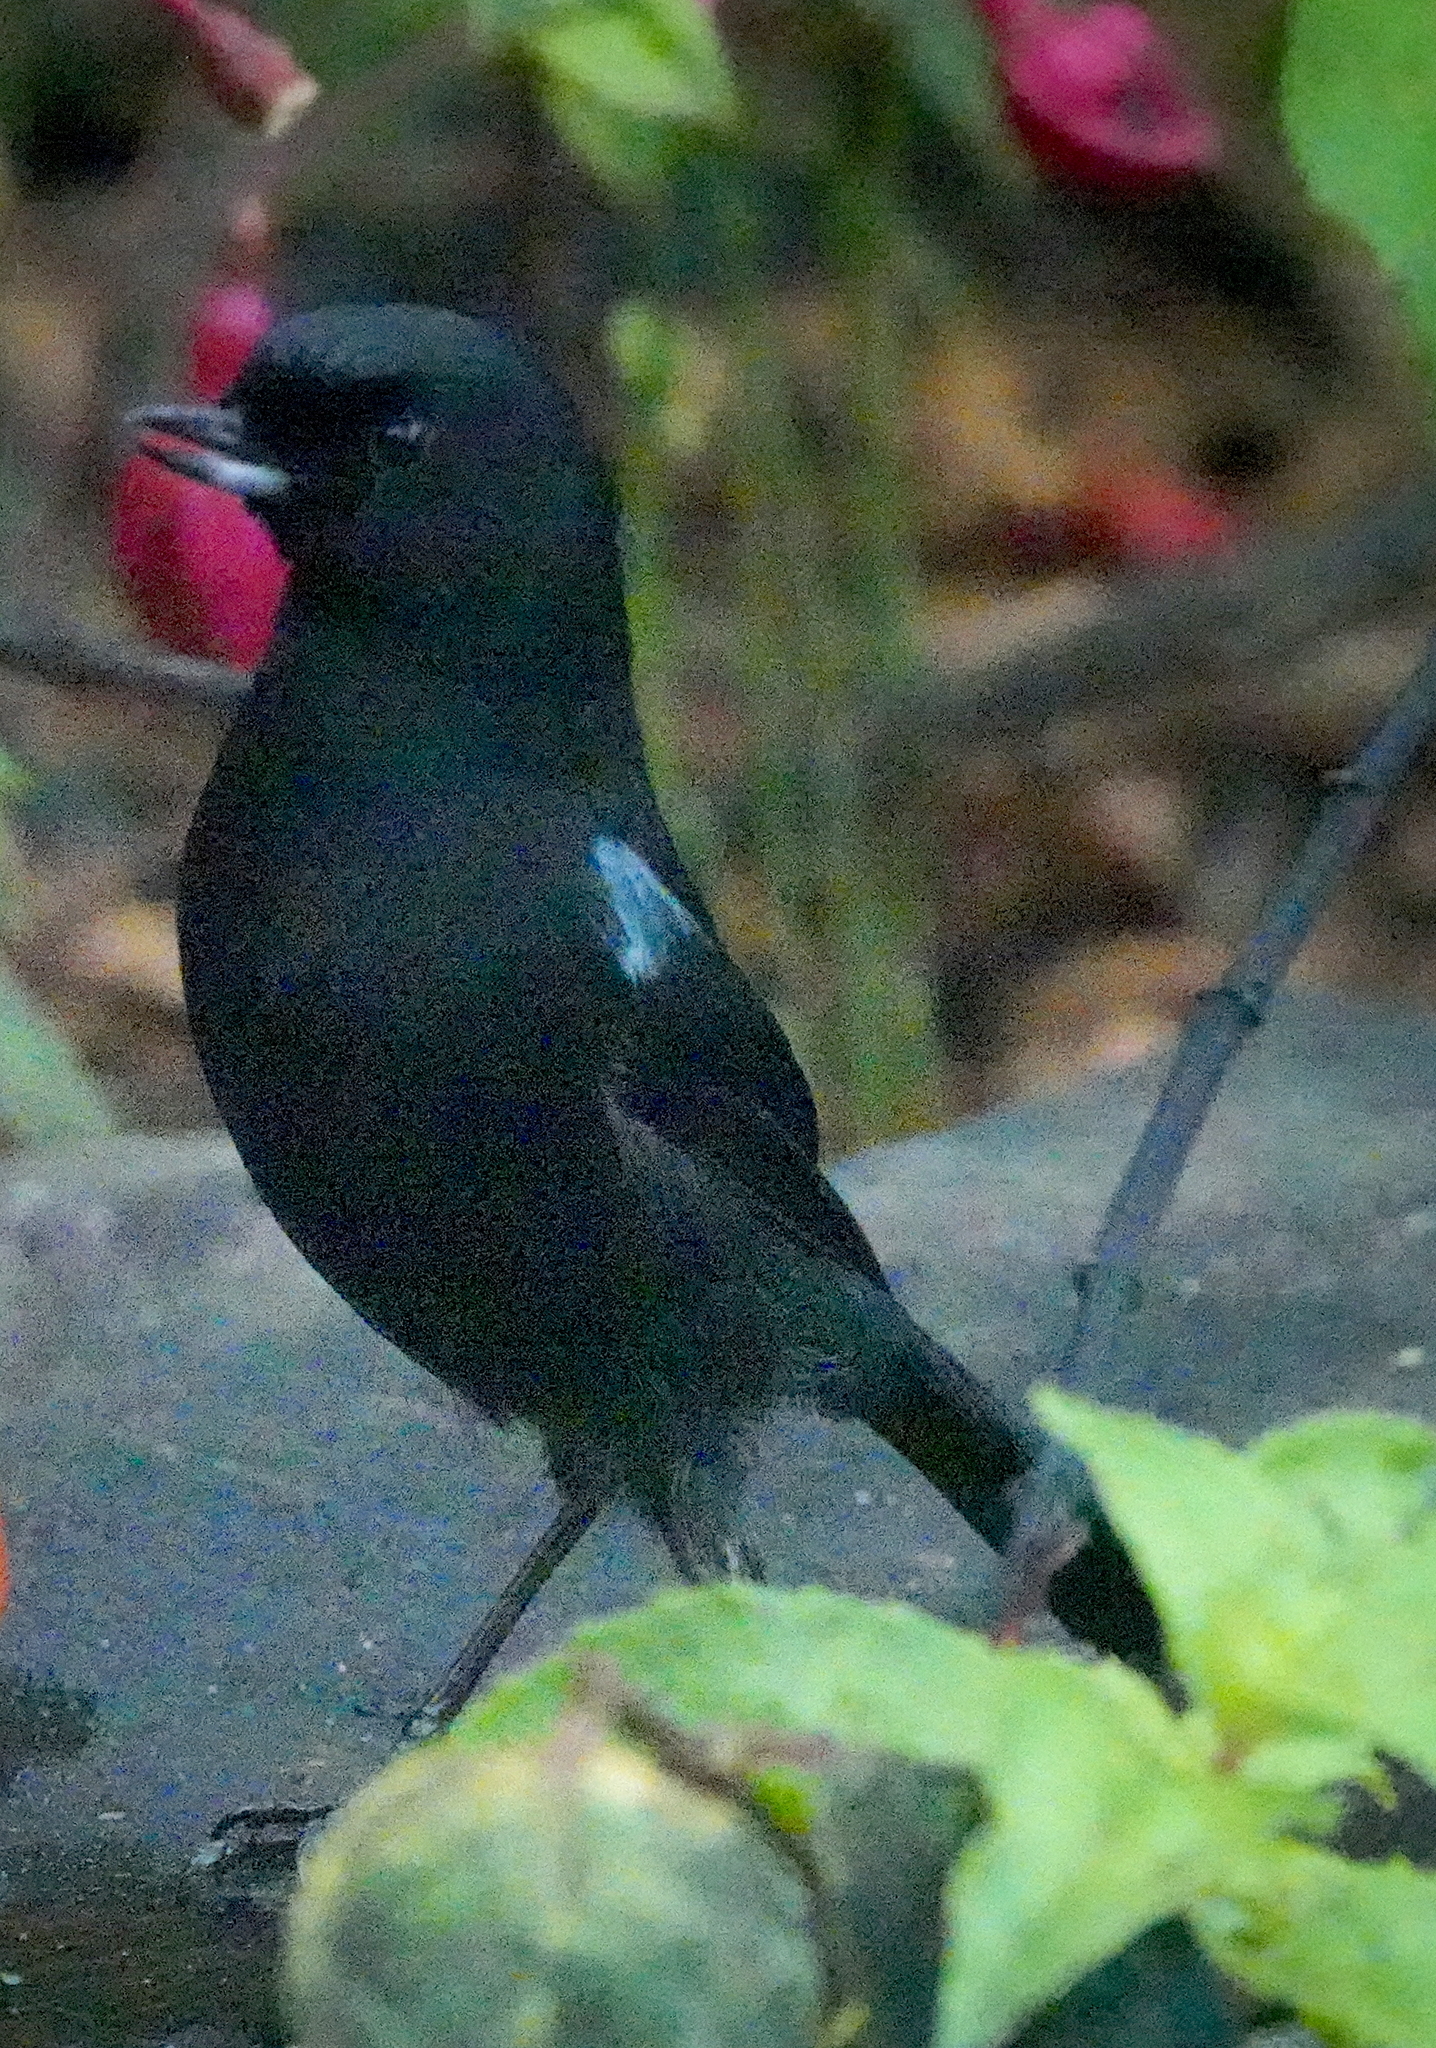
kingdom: Animalia
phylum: Chordata
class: Aves
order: Passeriformes
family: Thraupidae
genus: Diglossa
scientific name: Diglossa lafresnayii
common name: Glossy flowerpiercer
